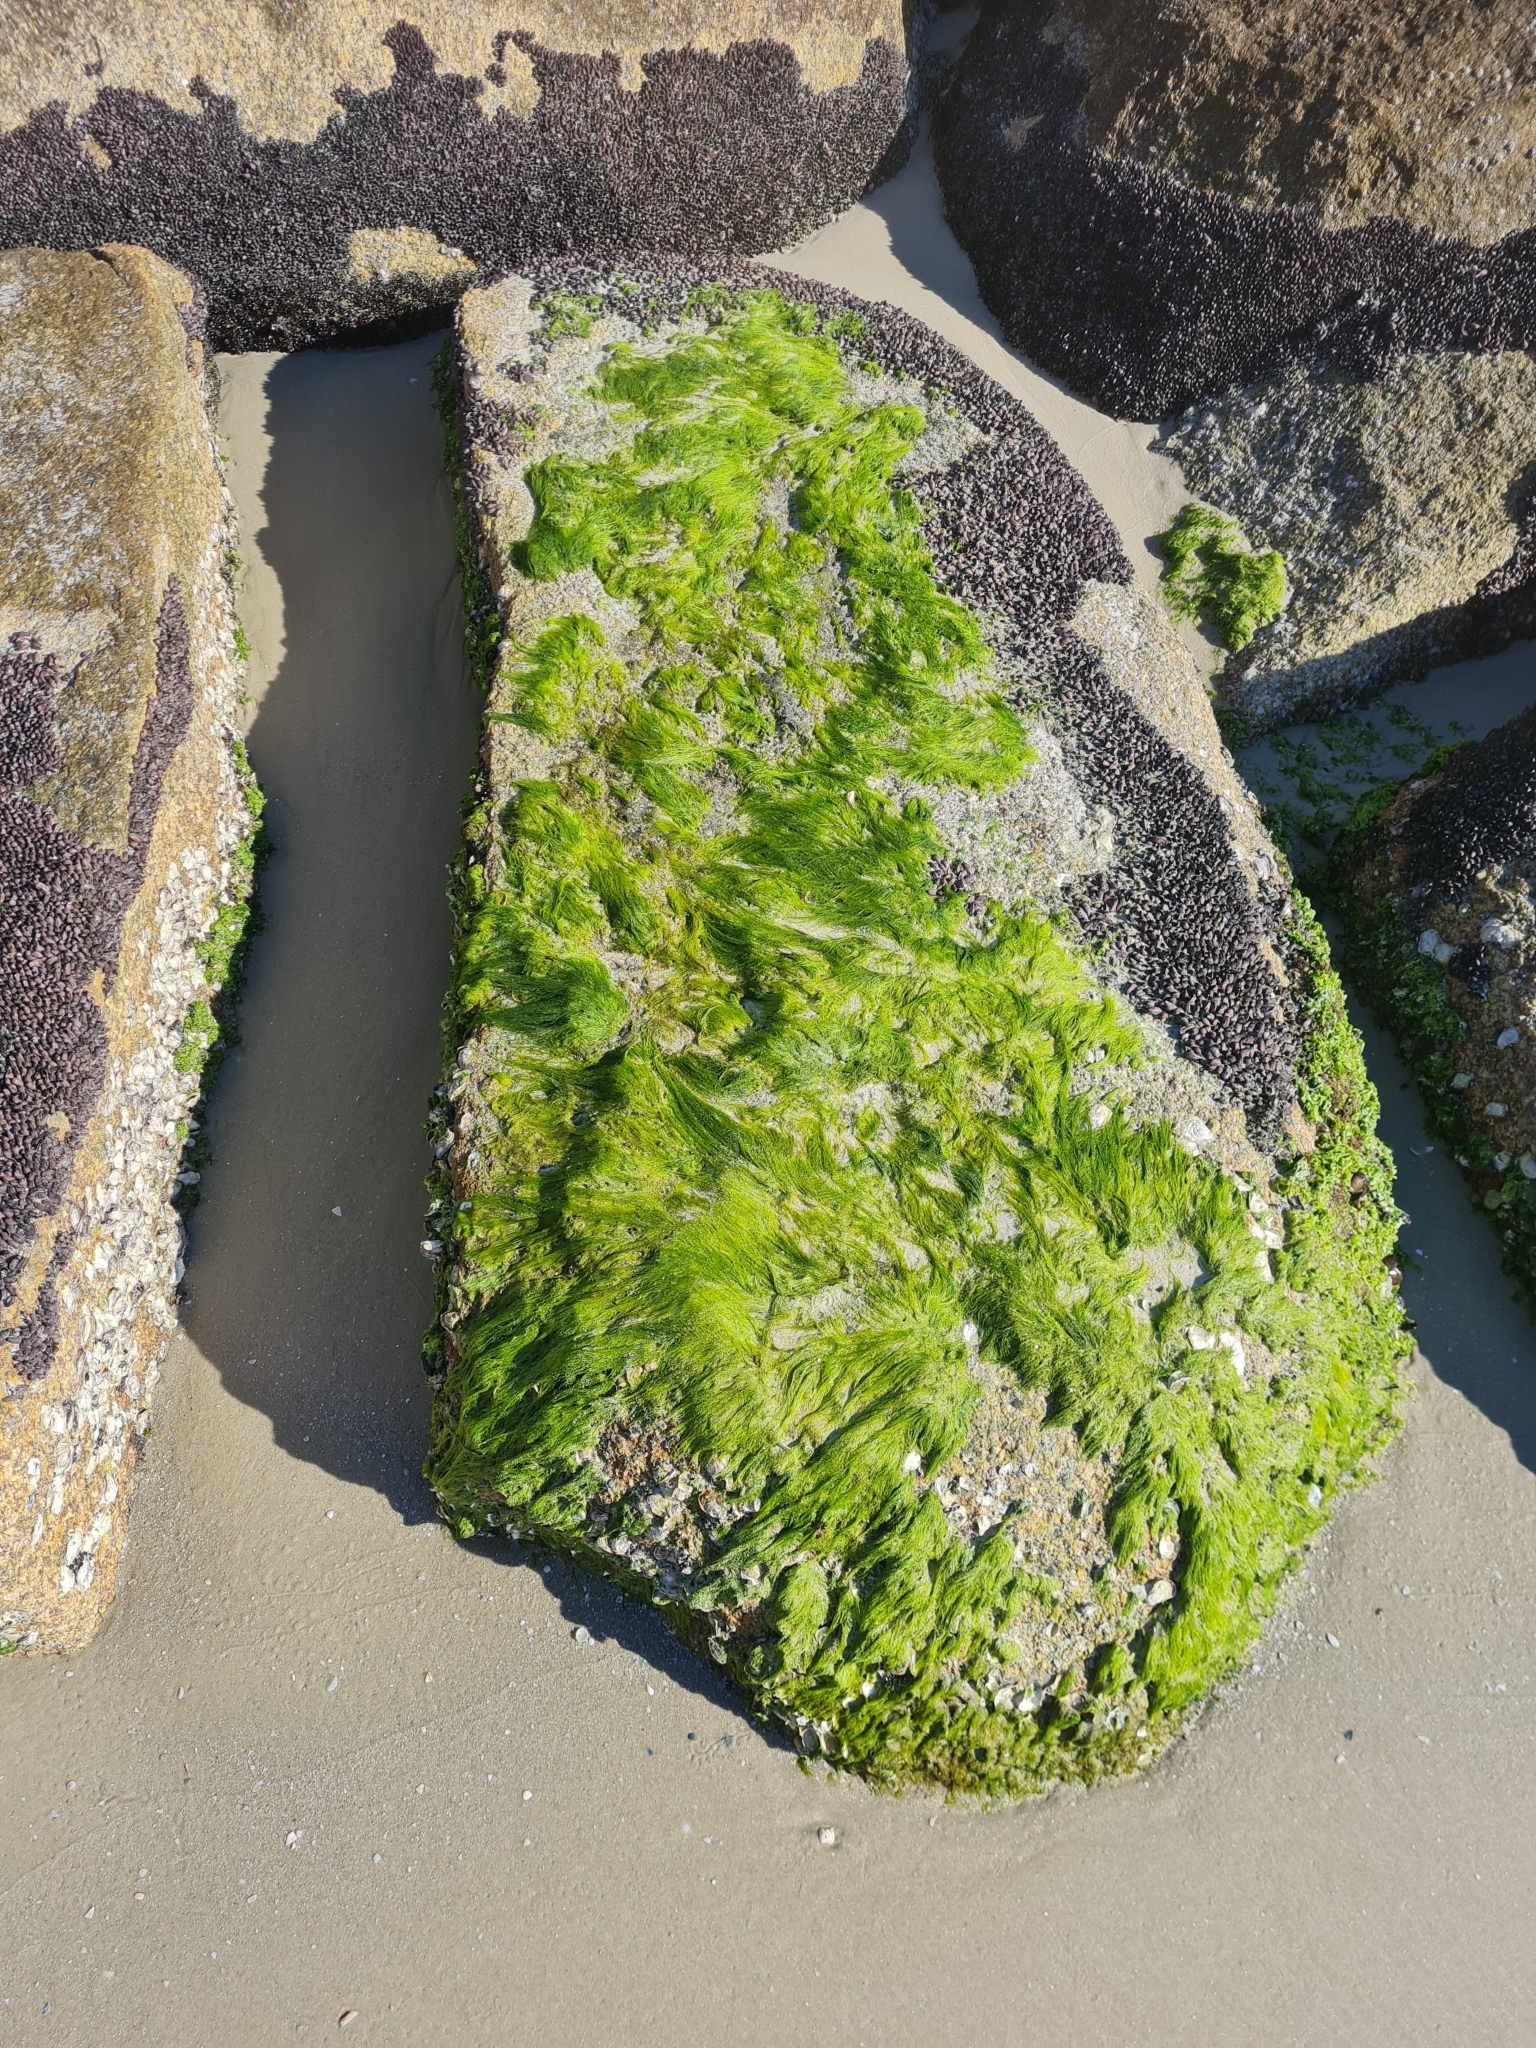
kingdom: Plantae
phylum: Chlorophyta
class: Ulvophyceae
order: Ulvales
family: Ulvaceae
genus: Ulva
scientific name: Ulva flexuosa
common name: Flexuous gutweed
